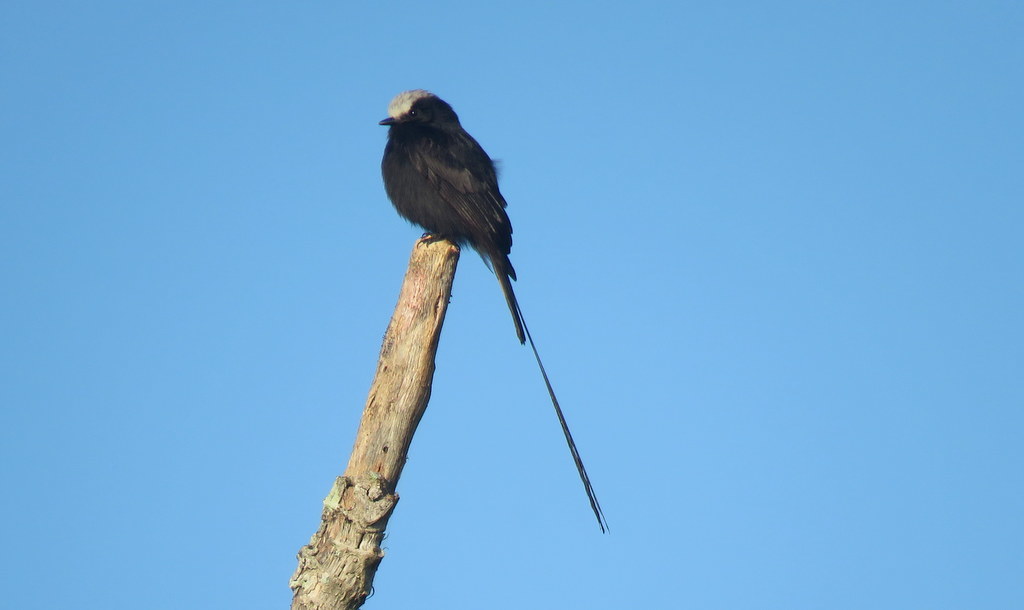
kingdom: Animalia
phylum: Chordata
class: Aves
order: Passeriformes
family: Tyrannidae
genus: Colonia
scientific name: Colonia colonus
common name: Long-tailed tyrant
